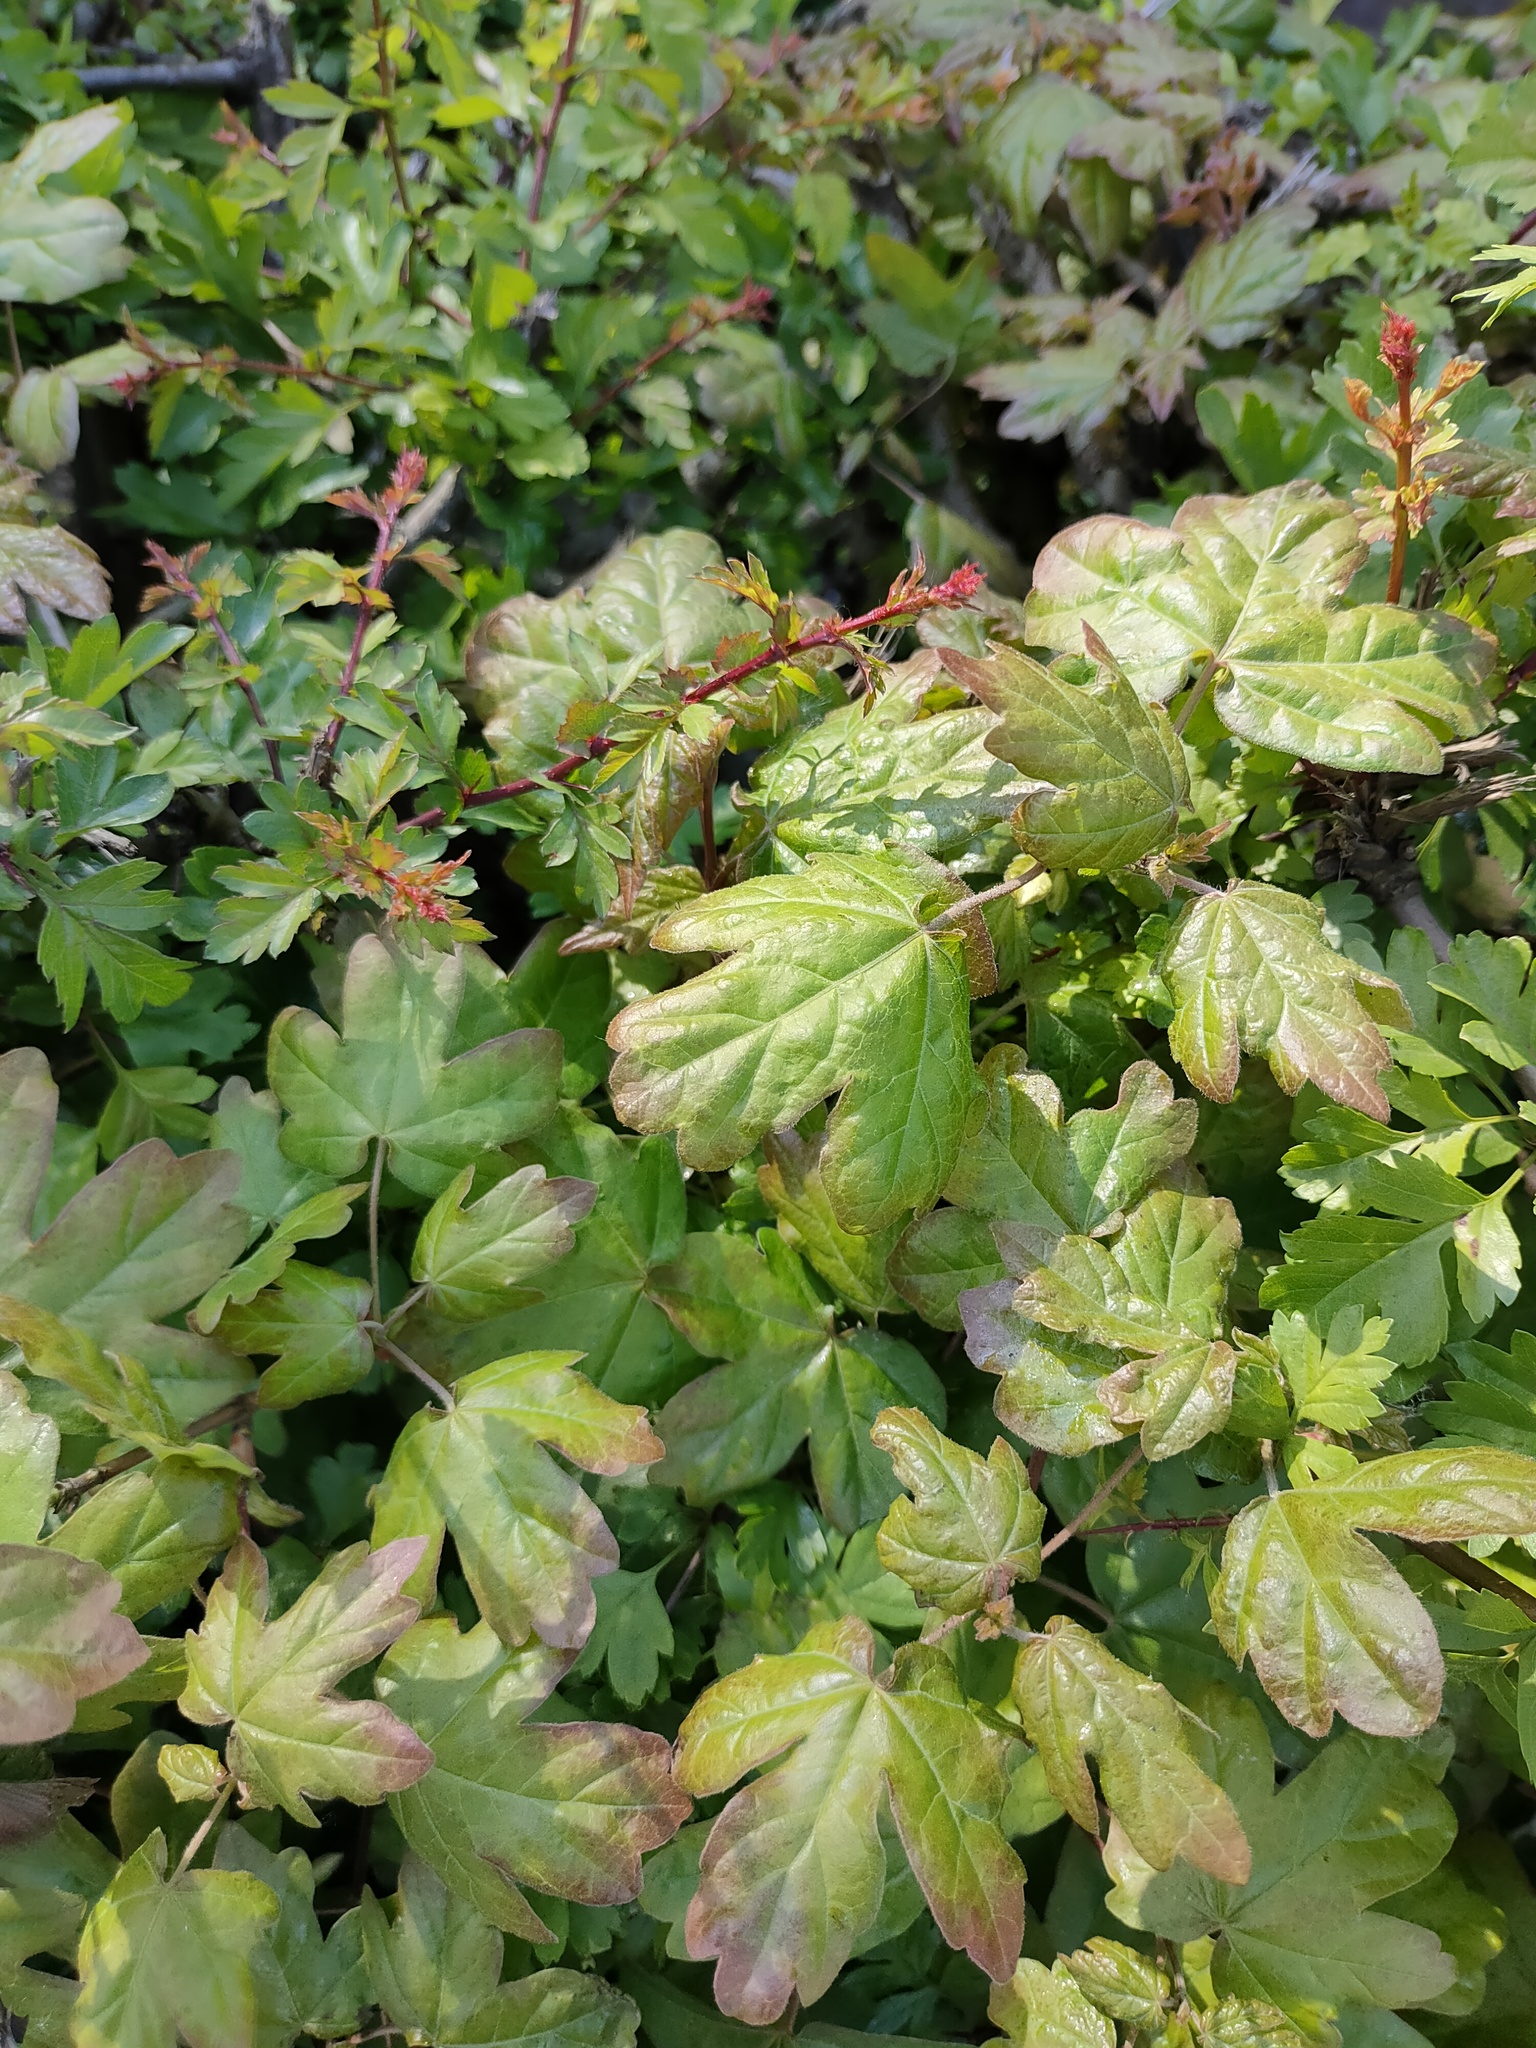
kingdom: Plantae
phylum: Tracheophyta
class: Magnoliopsida
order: Sapindales
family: Sapindaceae
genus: Acer
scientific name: Acer campestre
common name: Field maple
